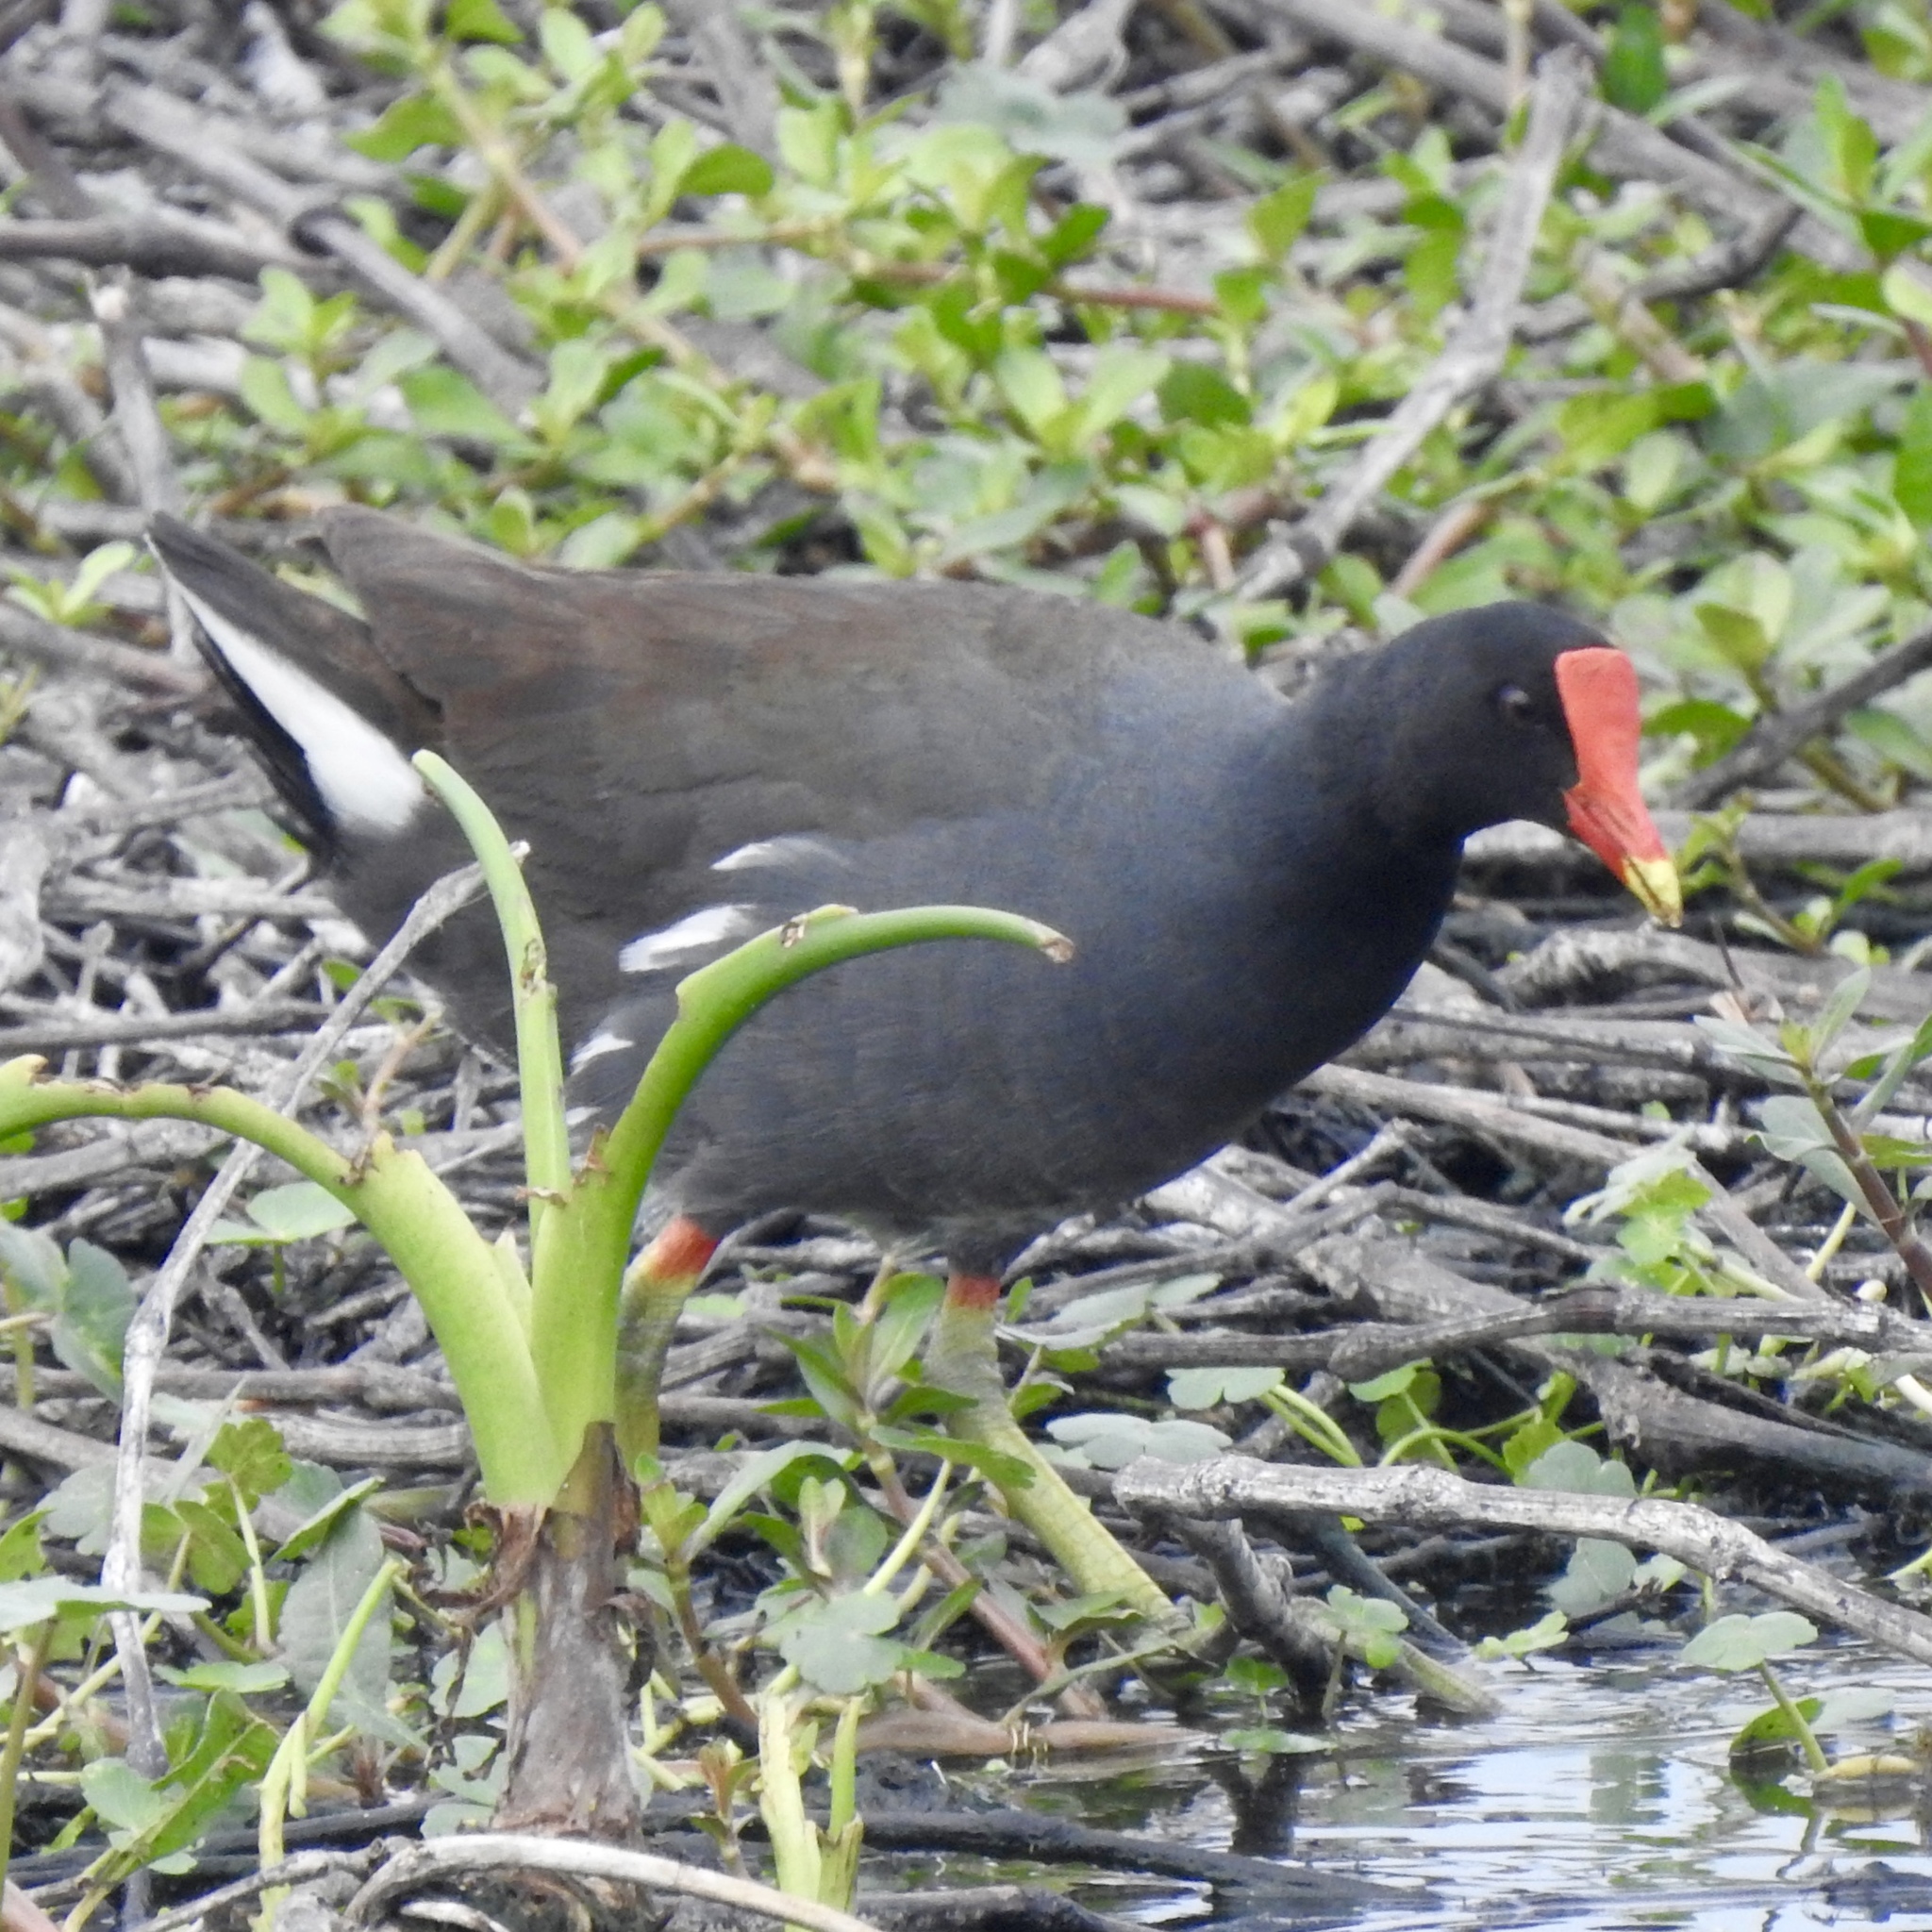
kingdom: Animalia
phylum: Chordata
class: Aves
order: Gruiformes
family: Rallidae
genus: Gallinula
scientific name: Gallinula chloropus
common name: Common moorhen
